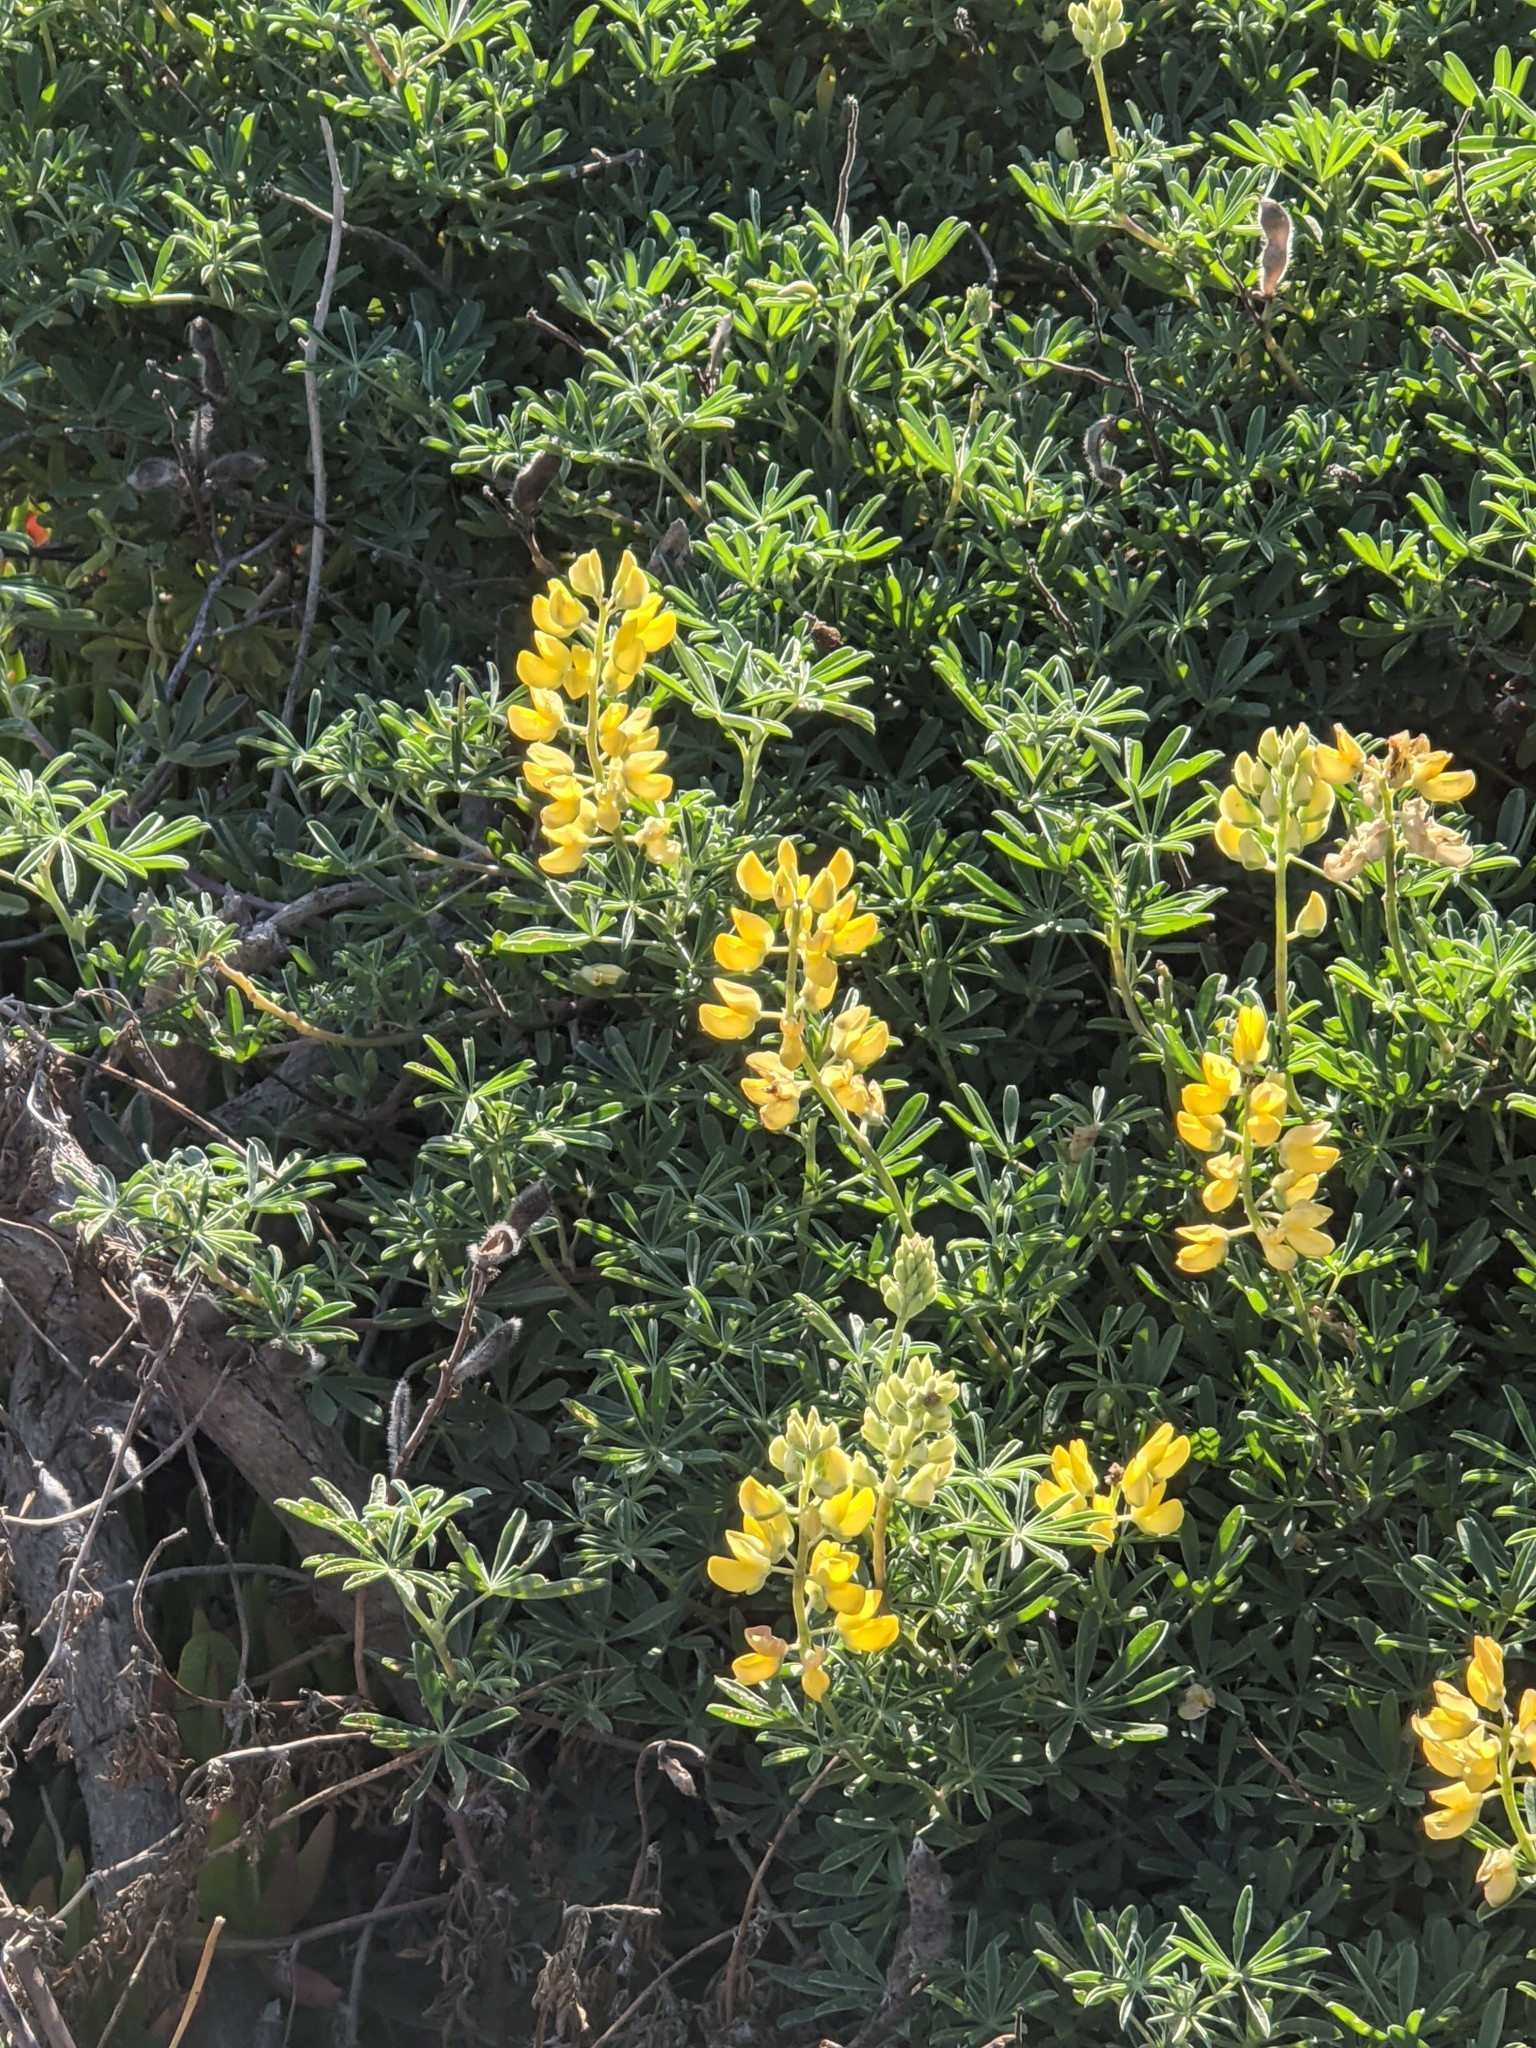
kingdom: Plantae
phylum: Tracheophyta
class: Magnoliopsida
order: Fabales
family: Fabaceae
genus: Lupinus
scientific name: Lupinus arboreus
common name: Yellow bush lupine
